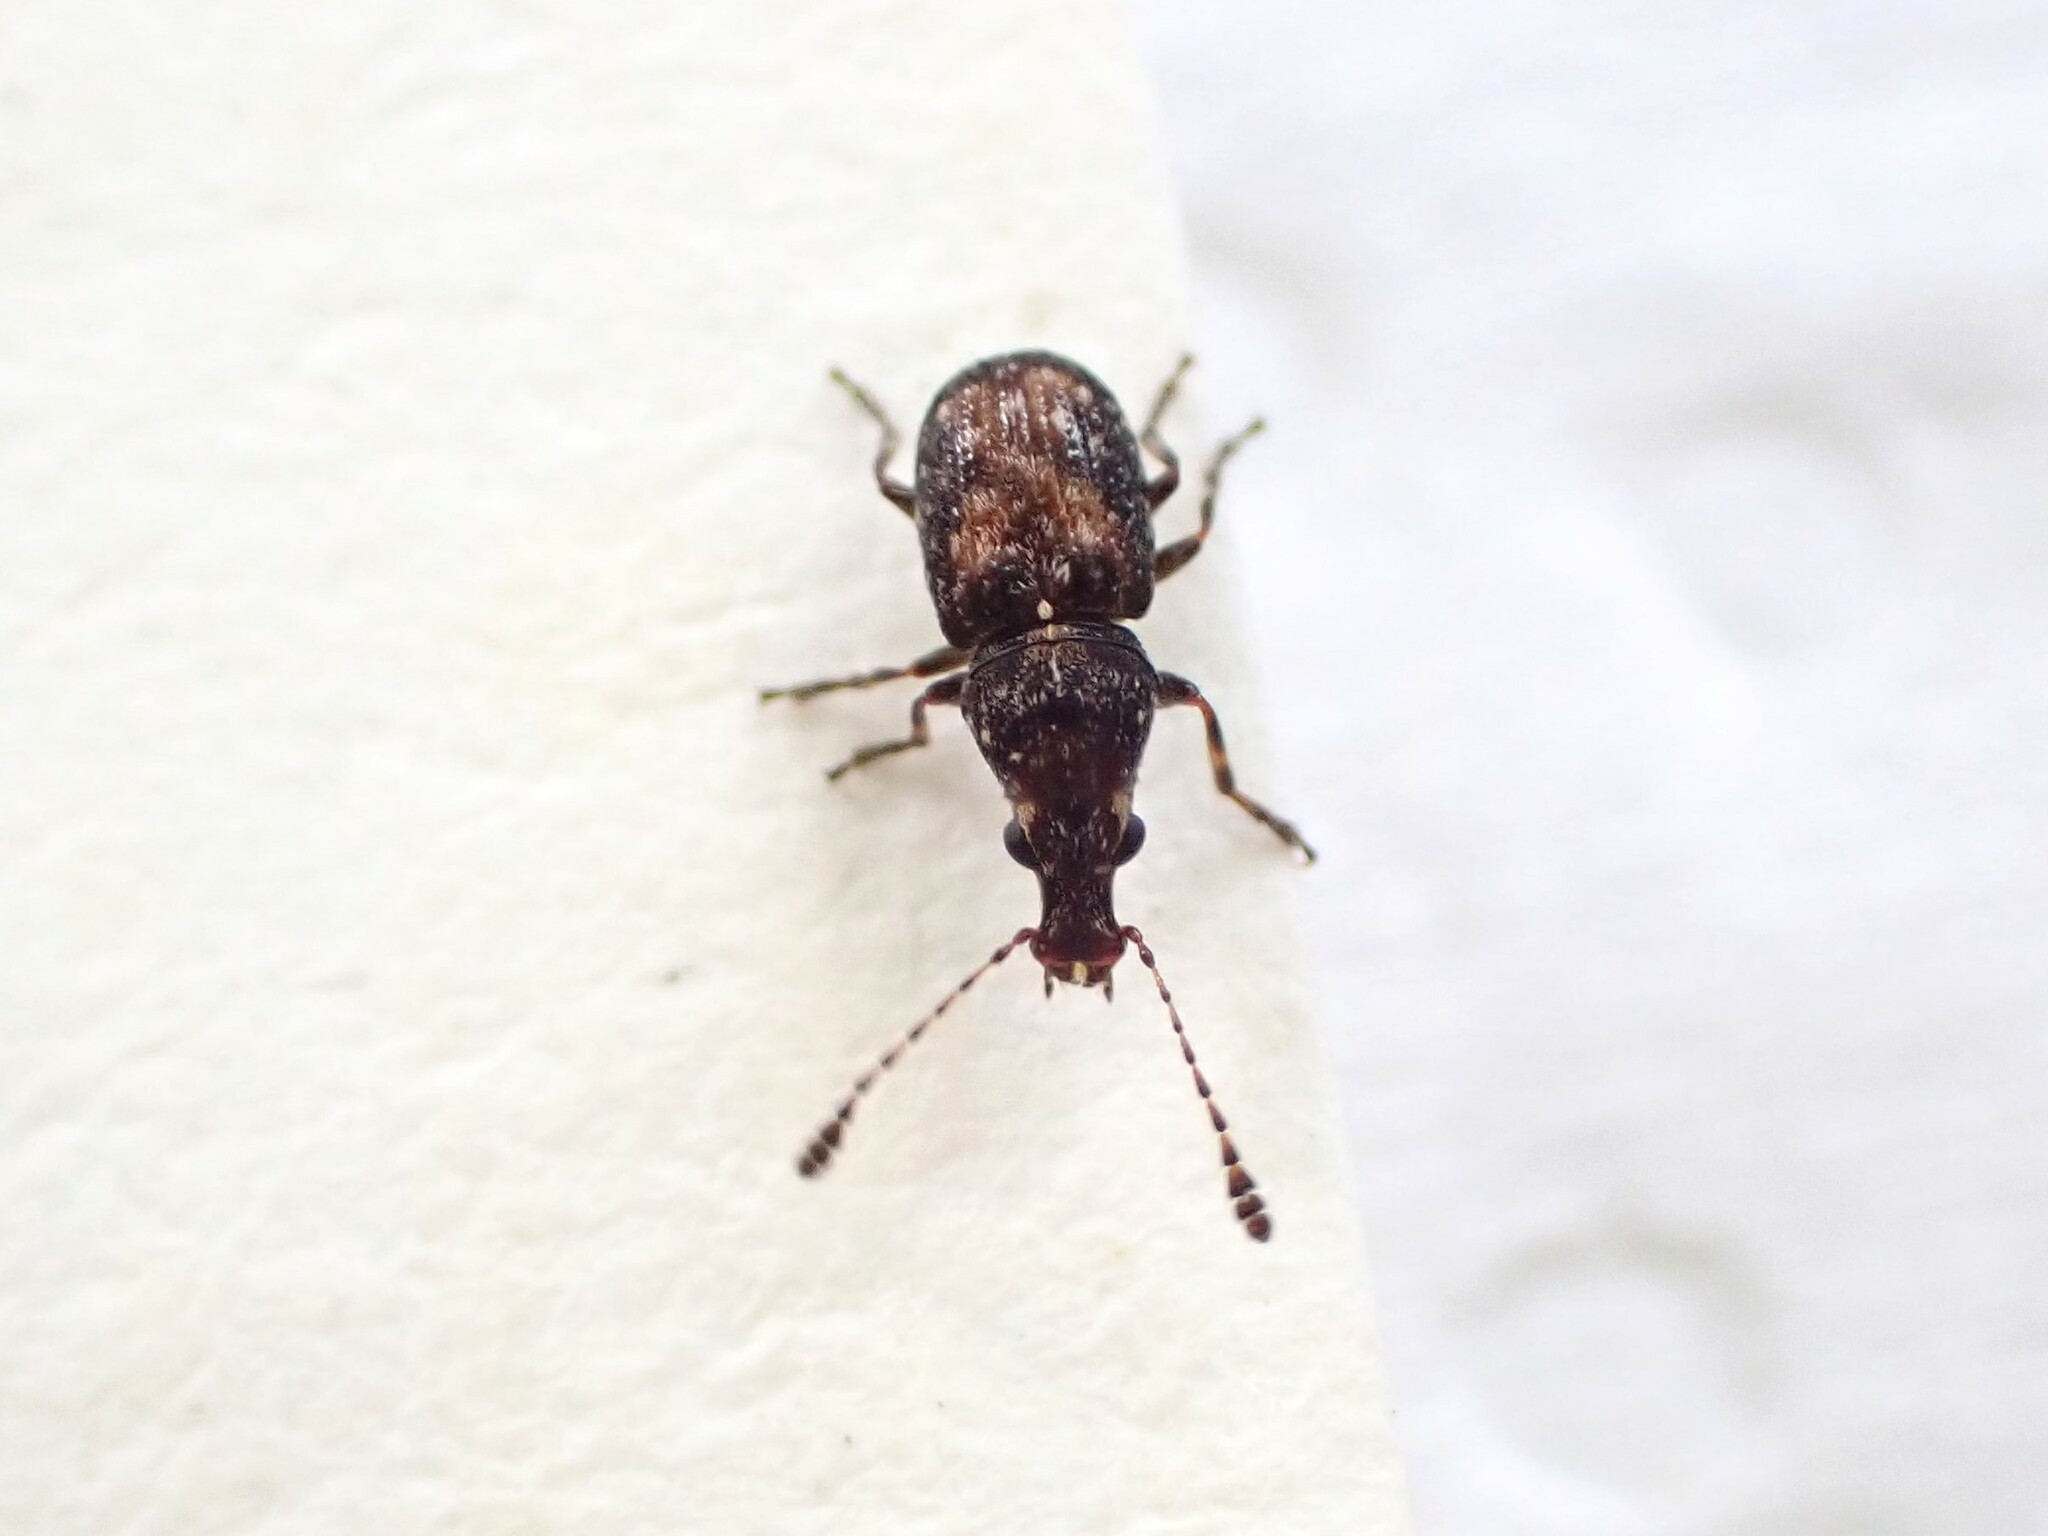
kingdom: Animalia
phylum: Arthropoda
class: Insecta
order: Coleoptera
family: Anthribidae
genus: Sharpius
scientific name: Sharpius
